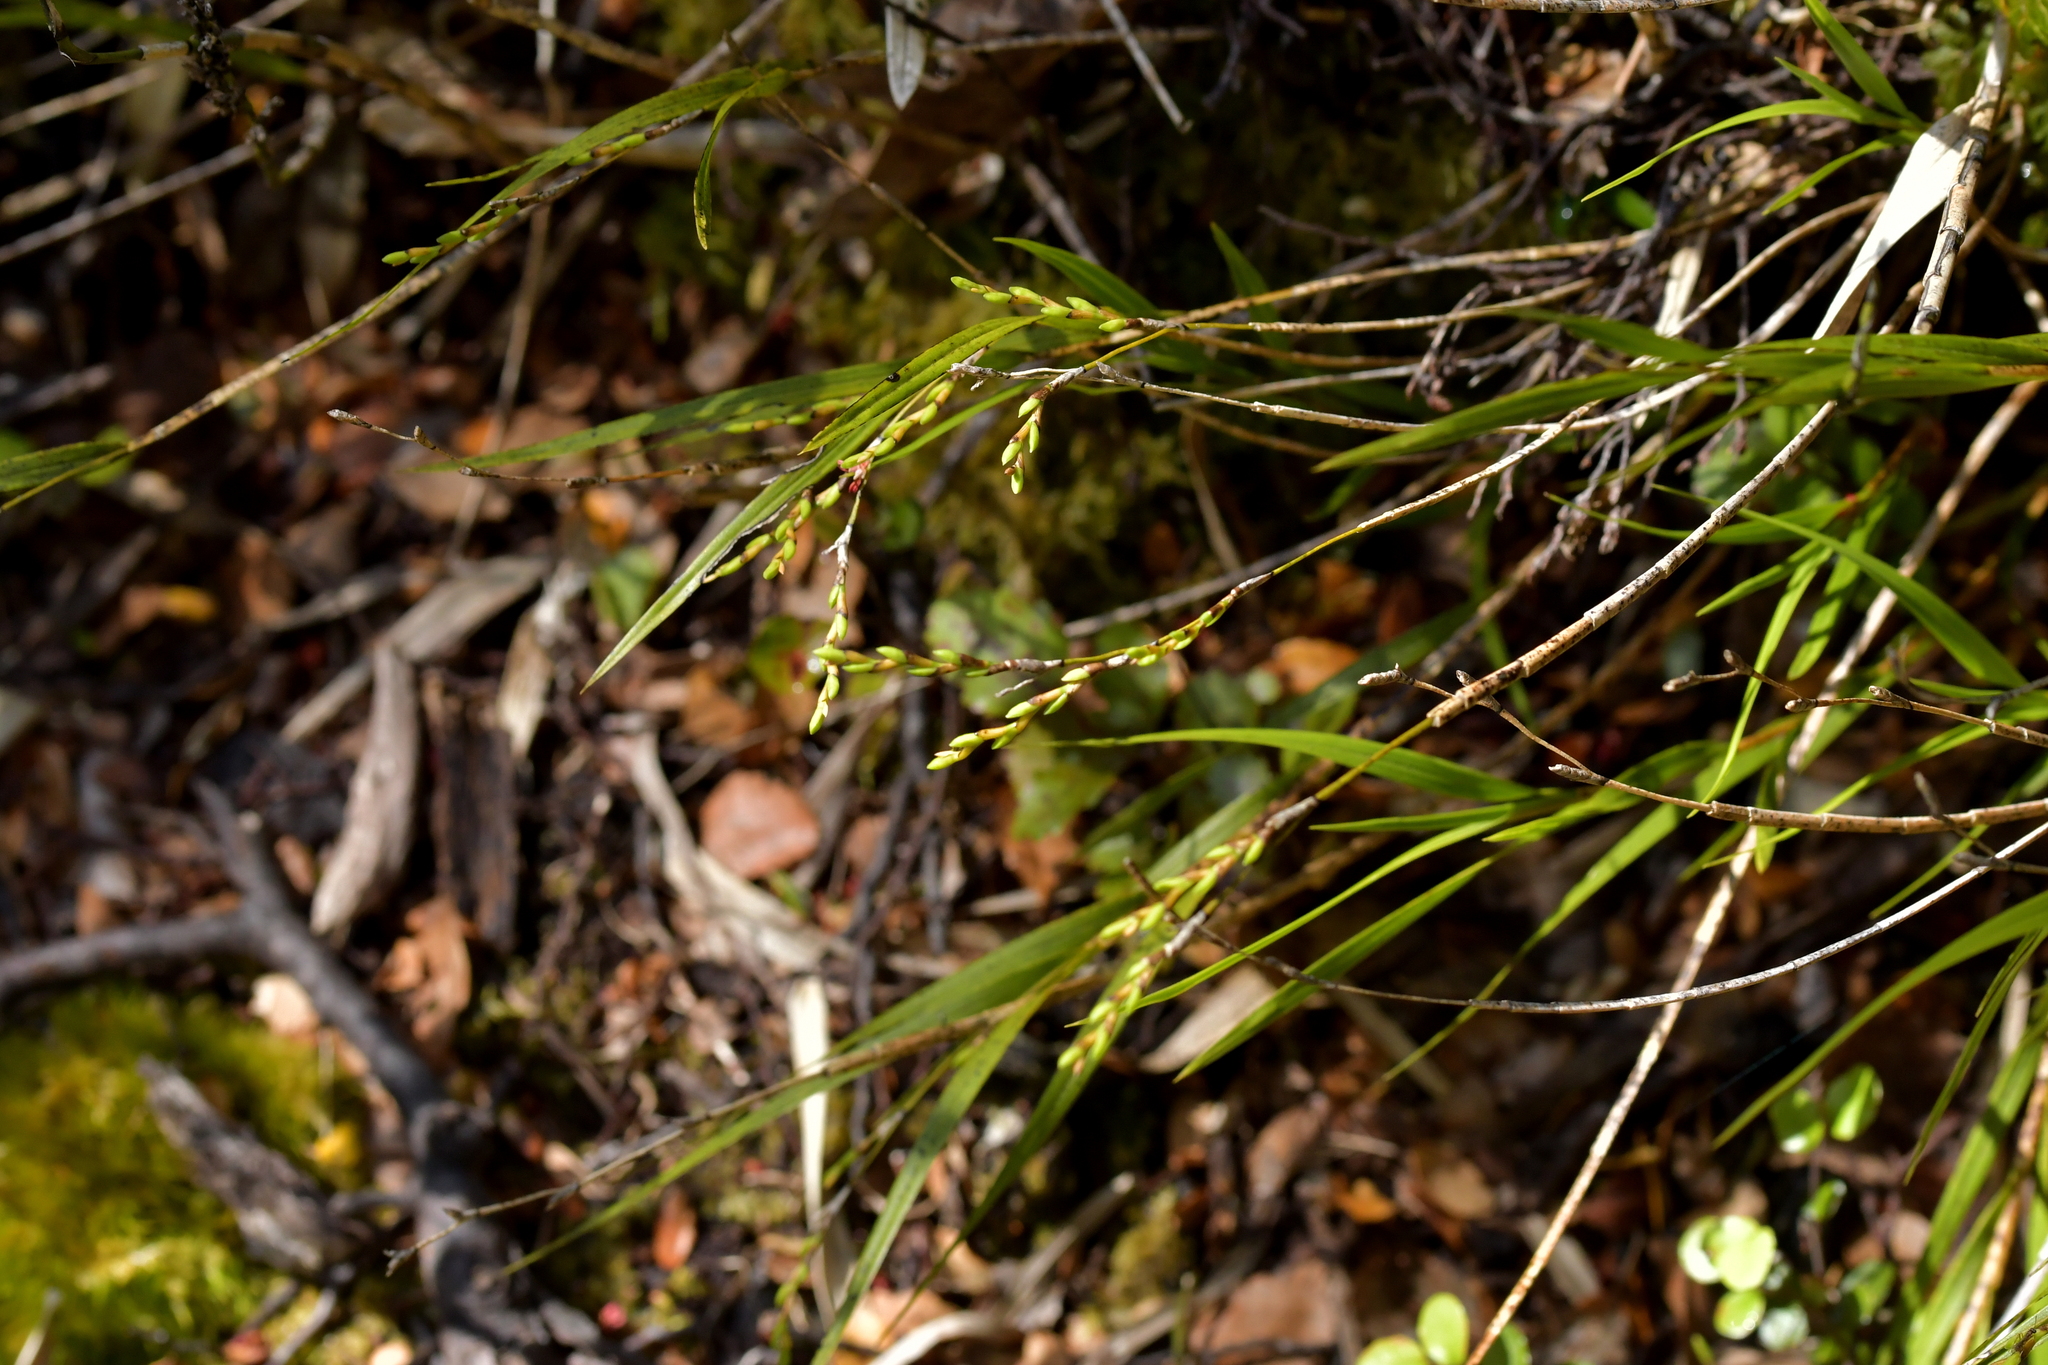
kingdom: Plantae
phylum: Tracheophyta
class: Liliopsida
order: Asparagales
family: Orchidaceae
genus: Earina
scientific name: Earina mucronata
